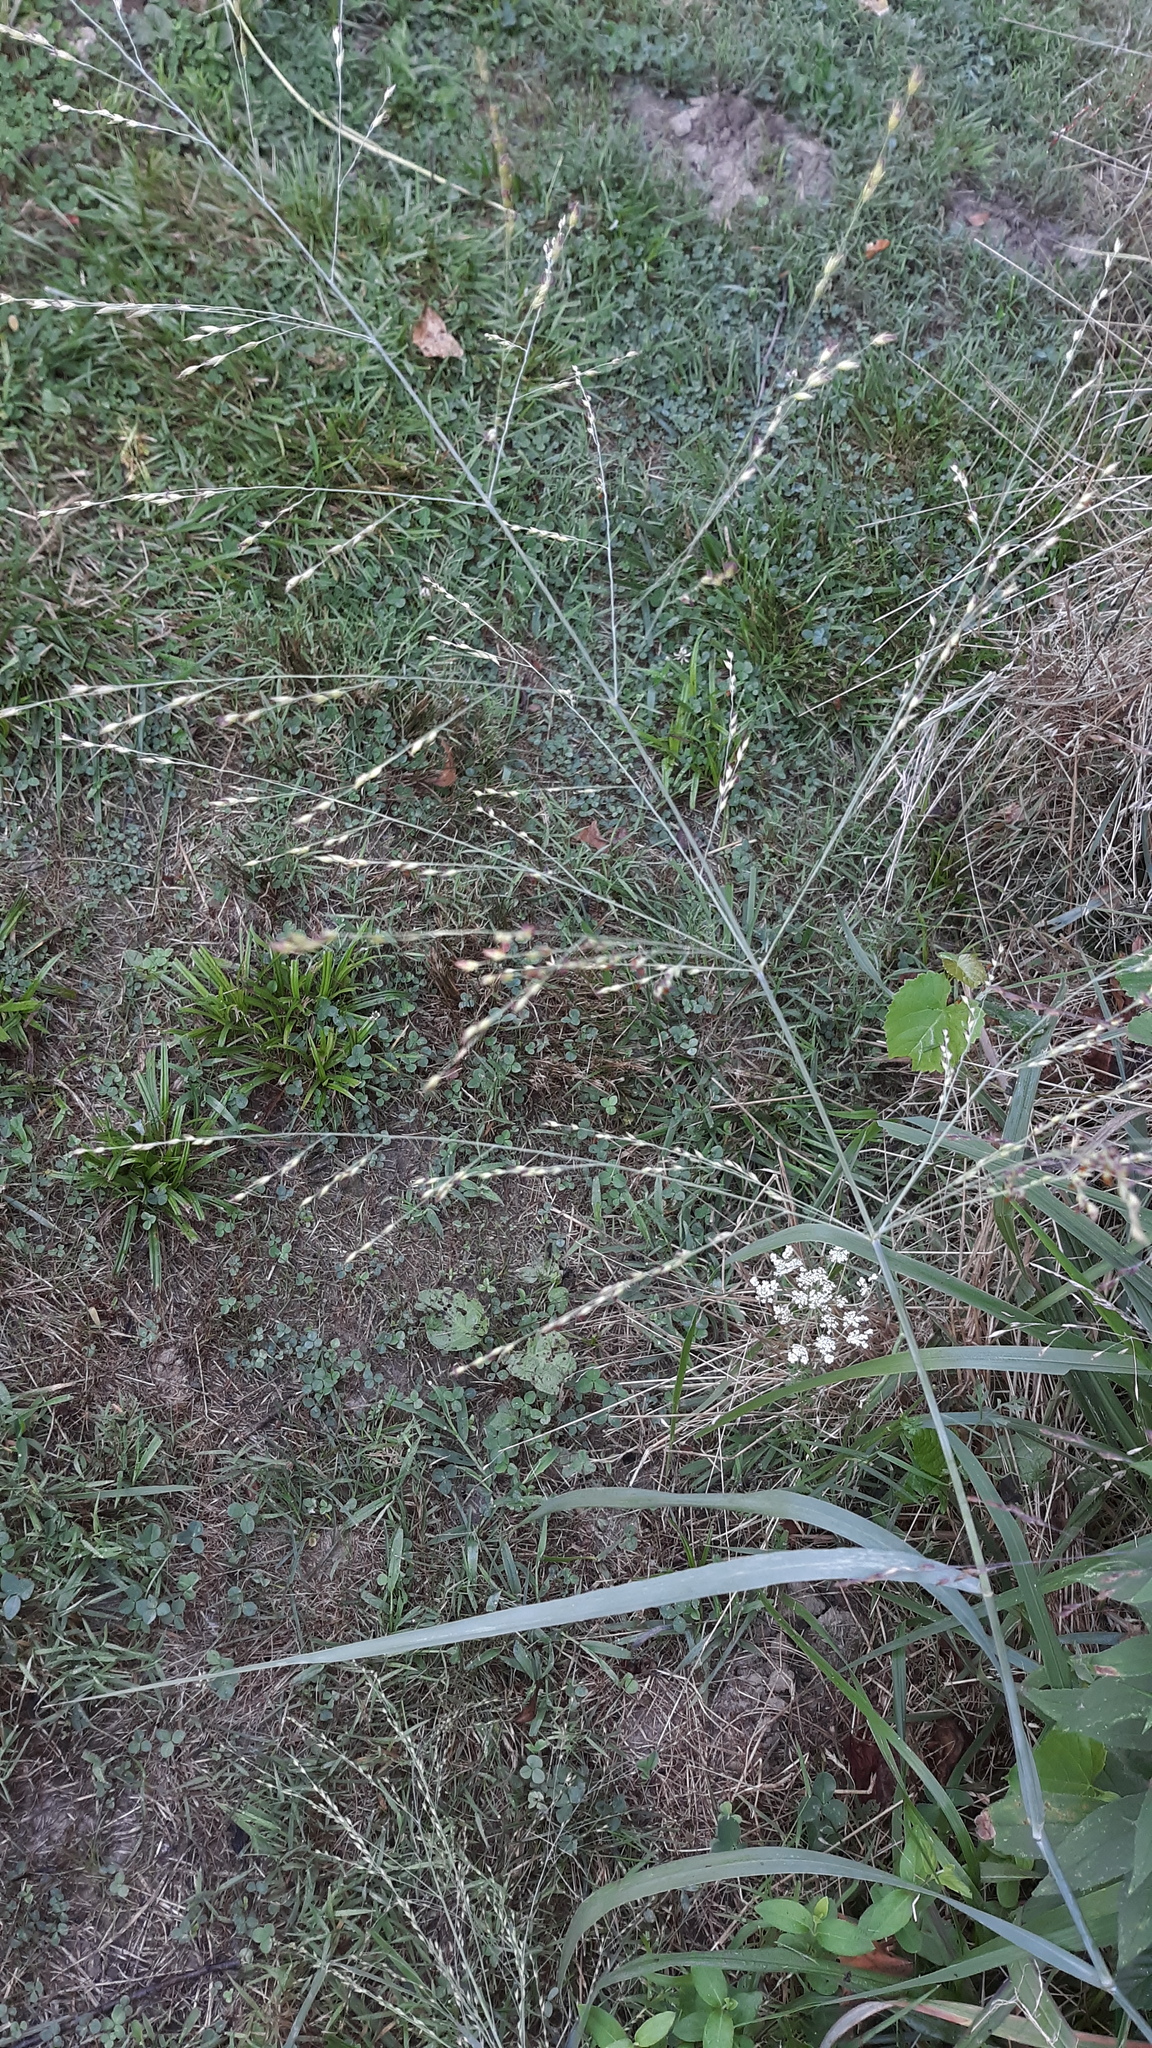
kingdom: Plantae
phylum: Tracheophyta
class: Liliopsida
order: Poales
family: Poaceae
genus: Panicum
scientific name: Panicum virgatum
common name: Switchgrass
